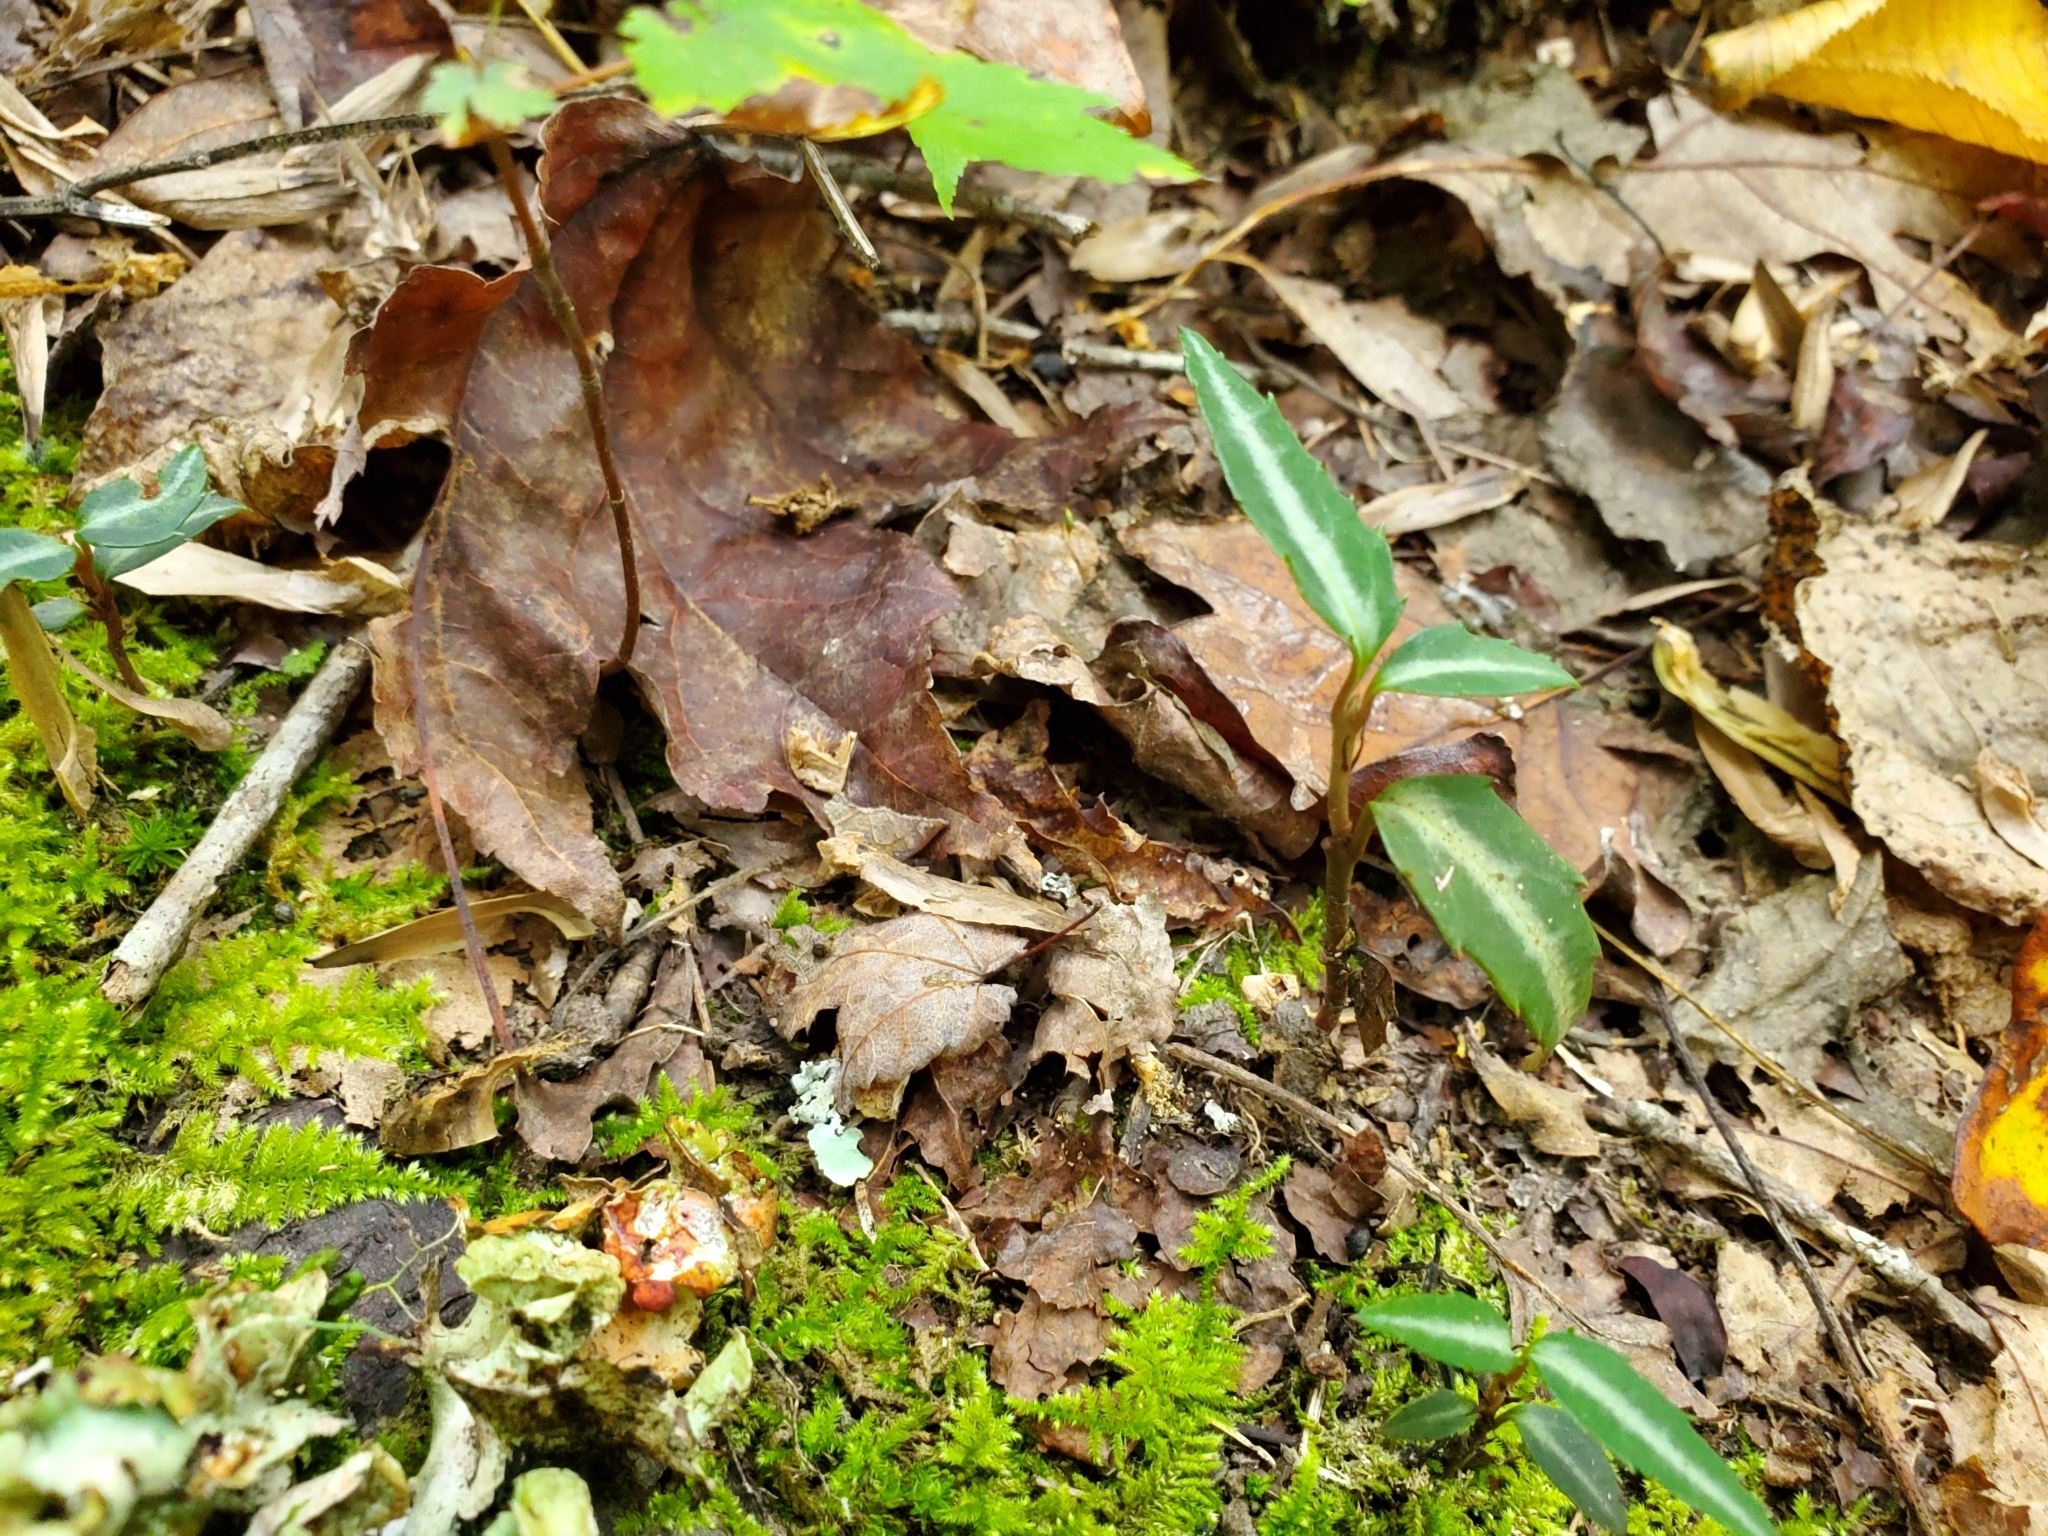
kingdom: Plantae
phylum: Tracheophyta
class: Magnoliopsida
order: Ericales
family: Ericaceae
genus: Chimaphila
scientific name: Chimaphila maculata
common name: Spotted pipsissewa
